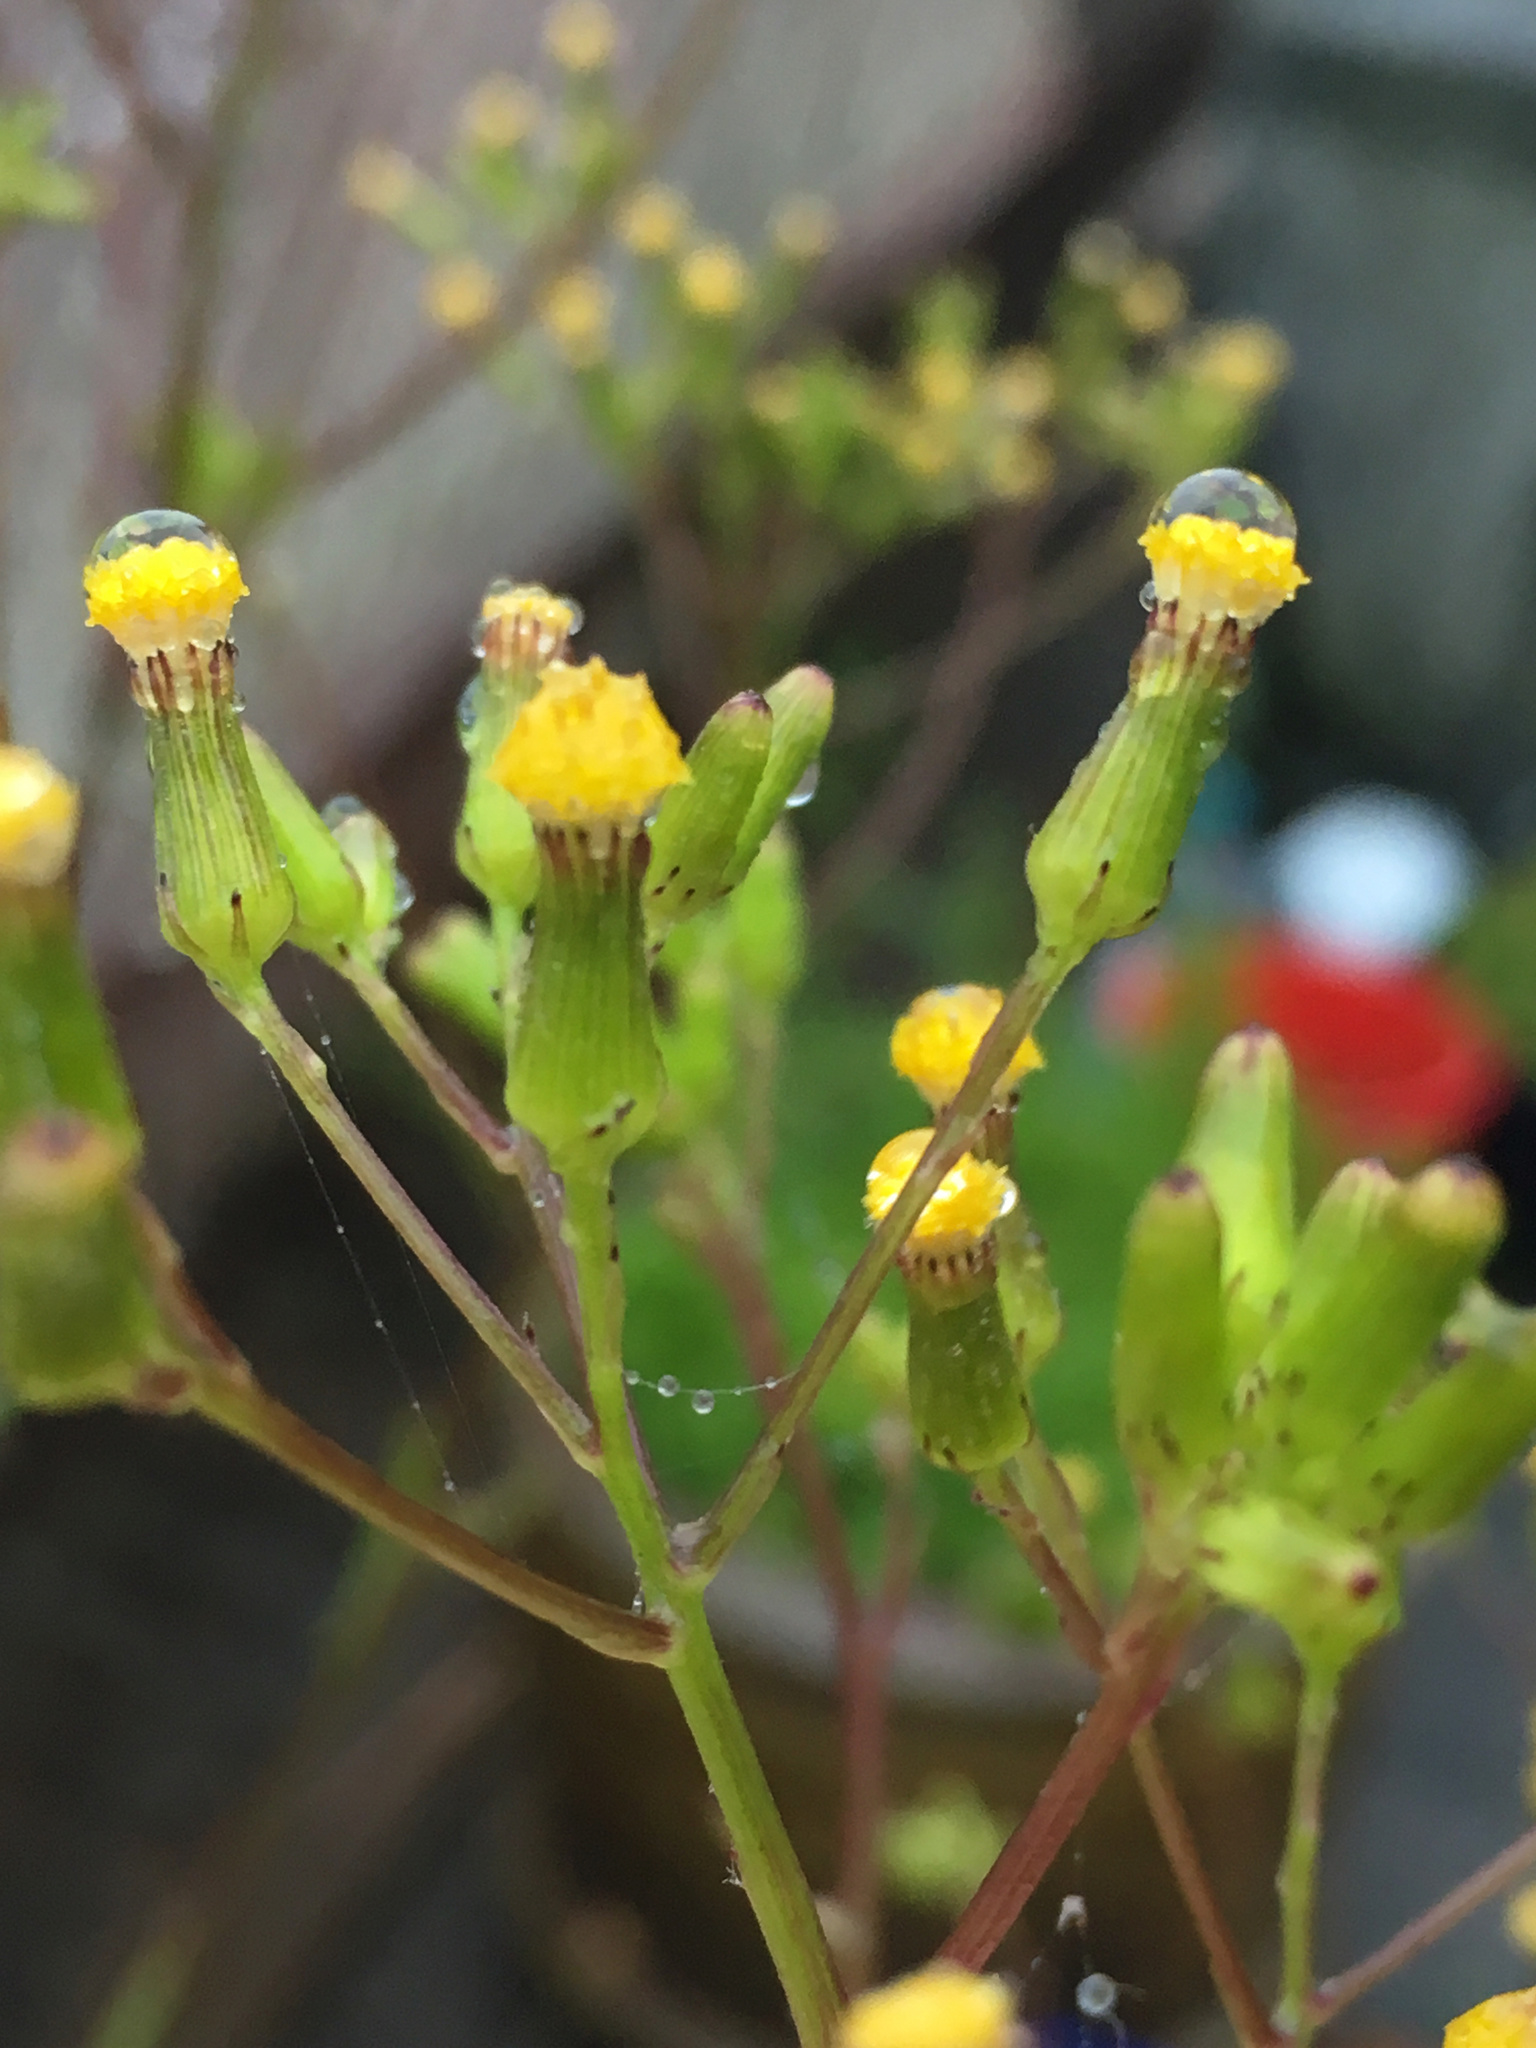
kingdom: Plantae
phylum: Tracheophyta
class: Magnoliopsida
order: Asterales
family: Asteraceae
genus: Senecio
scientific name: Senecio hispidulus
